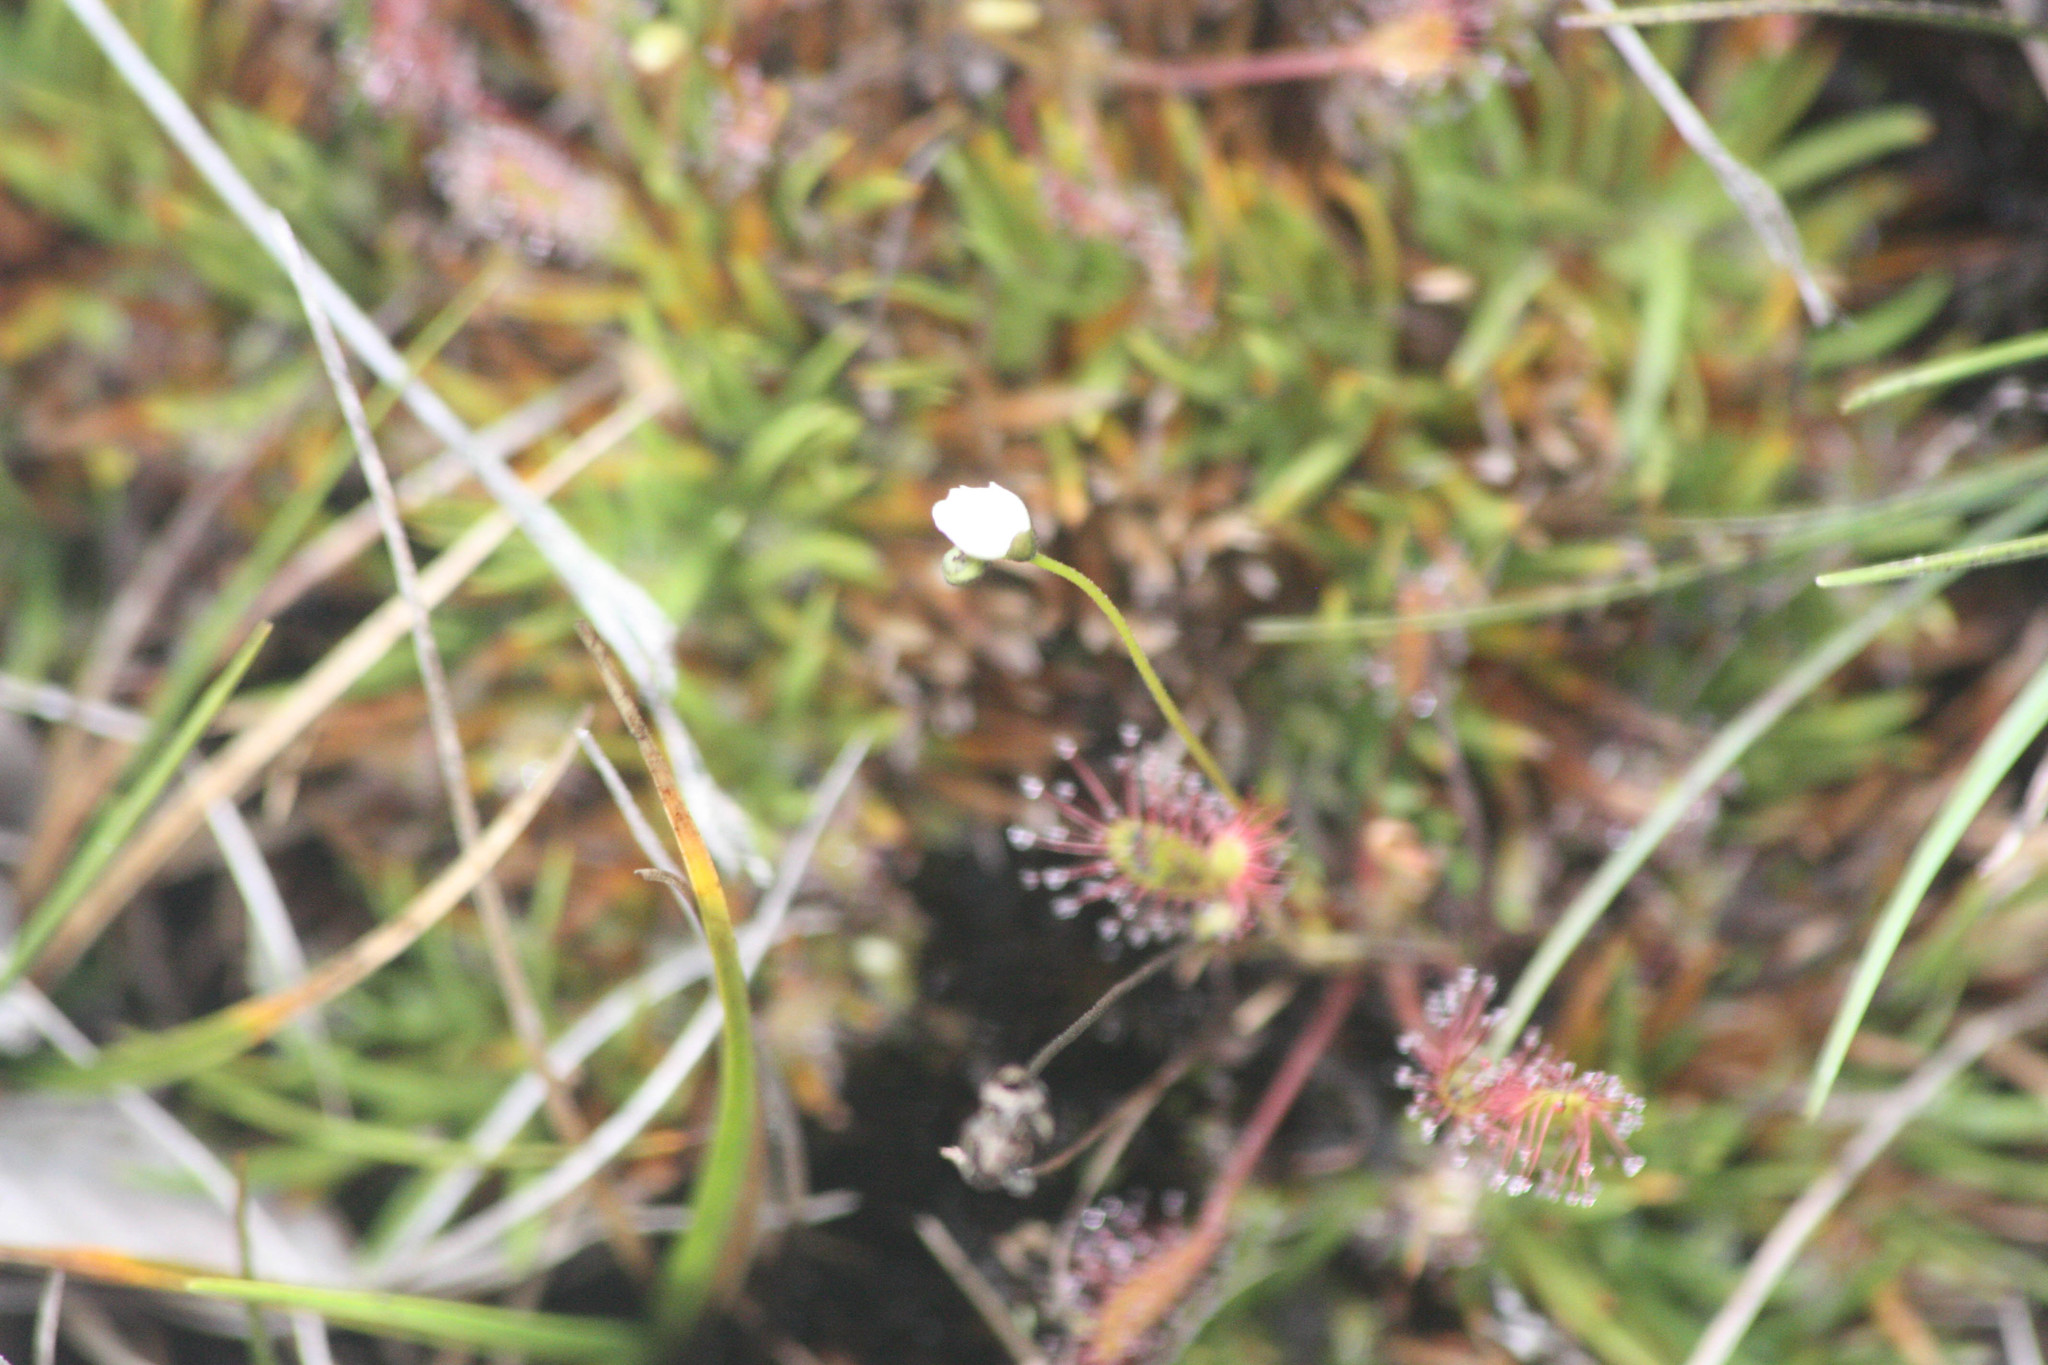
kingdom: Plantae
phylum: Tracheophyta
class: Magnoliopsida
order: Caryophyllales
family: Droseraceae
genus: Drosera
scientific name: Drosera anglica
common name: Great sundew
